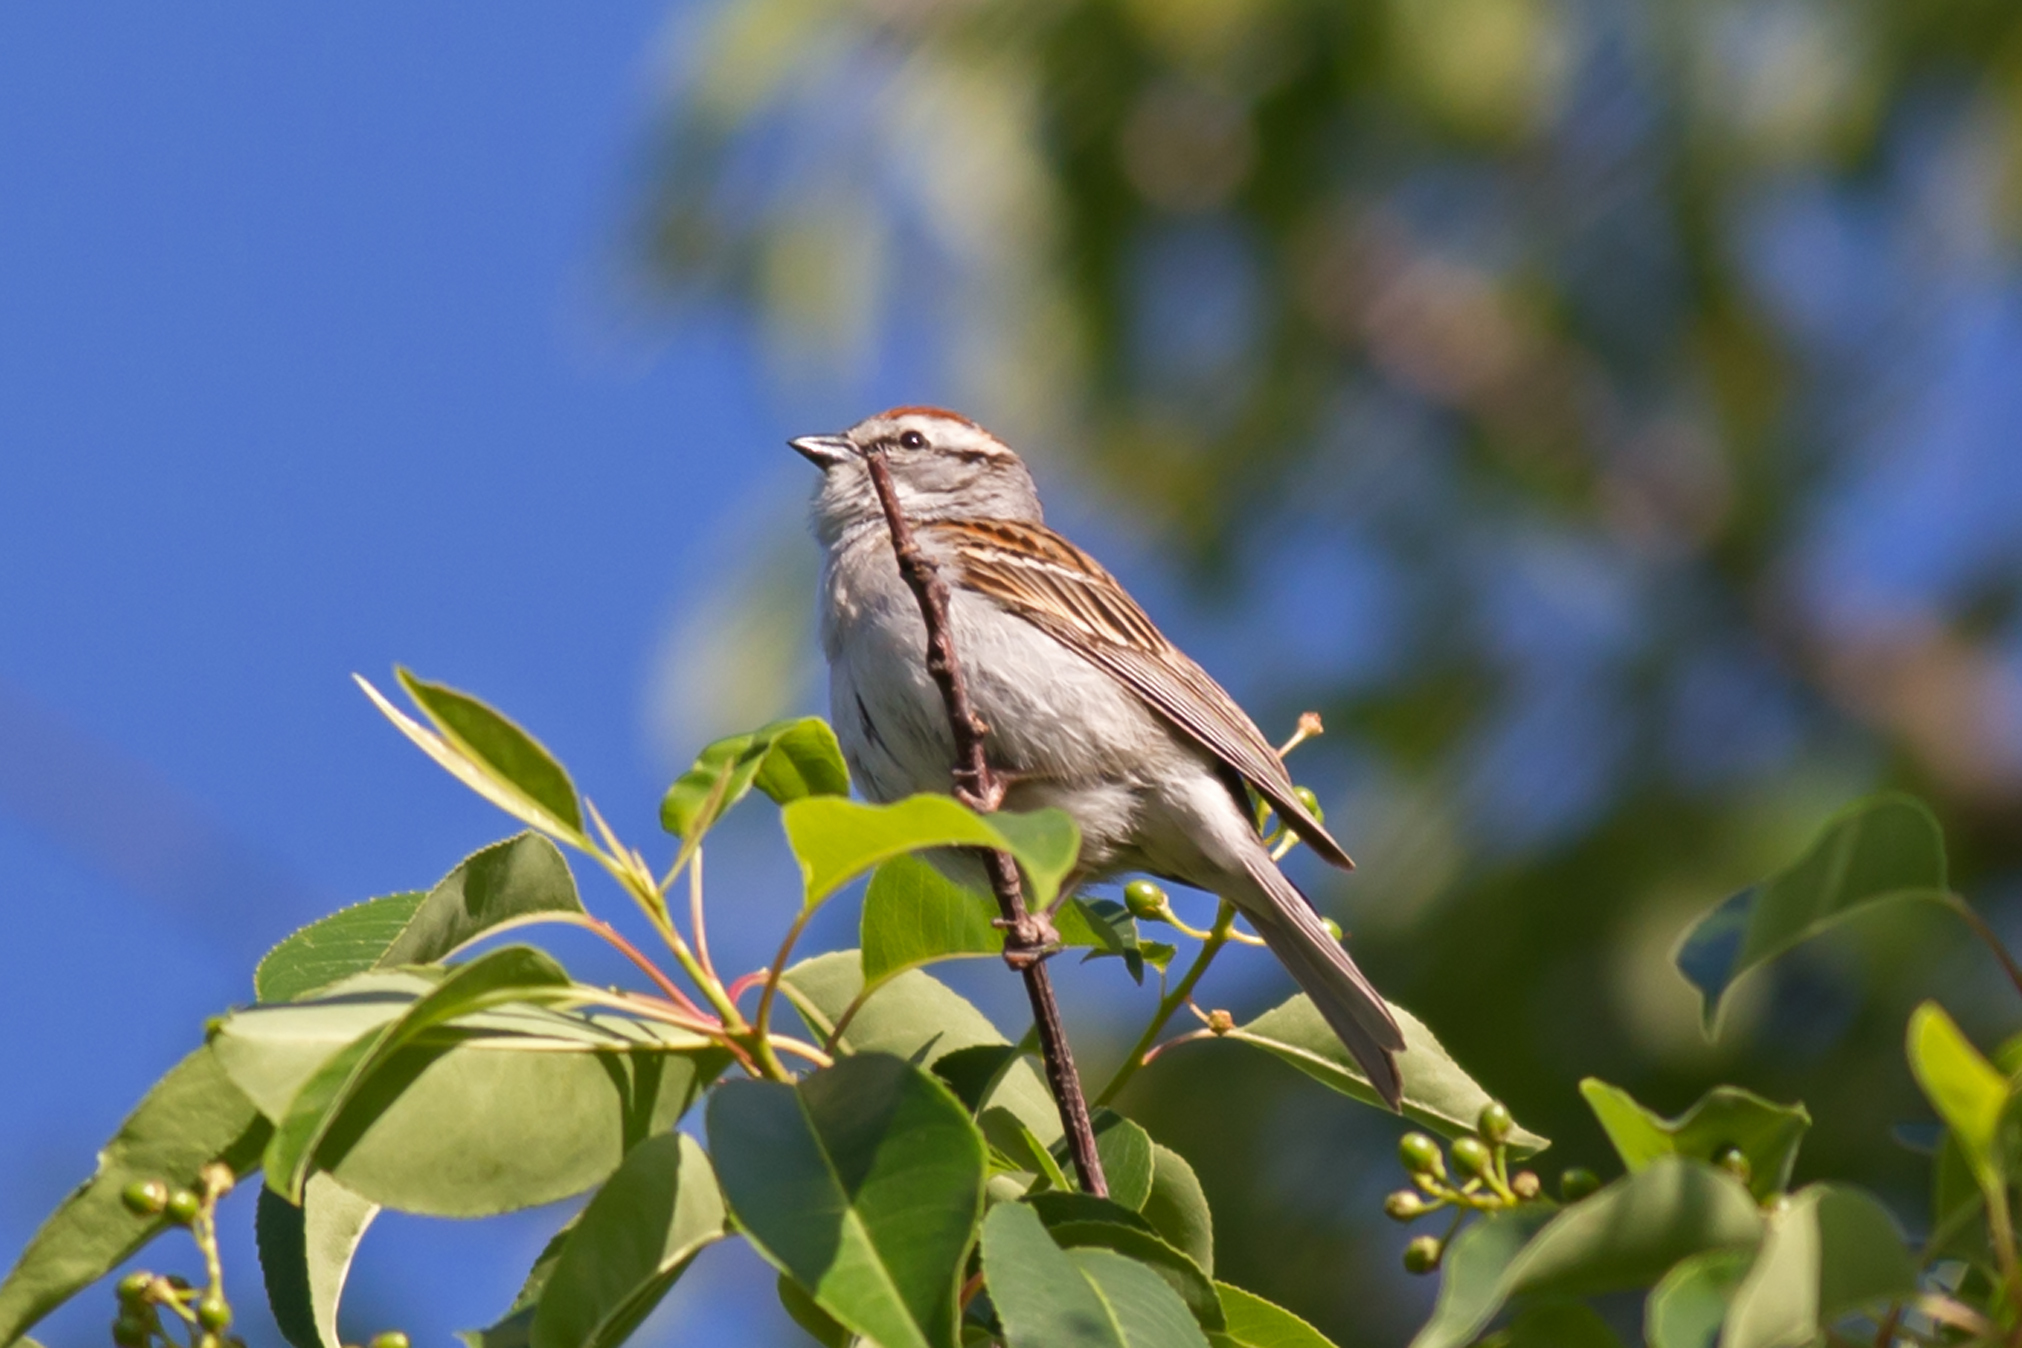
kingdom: Animalia
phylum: Chordata
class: Aves
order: Passeriformes
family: Passerellidae
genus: Spizella
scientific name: Spizella passerina
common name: Chipping sparrow
